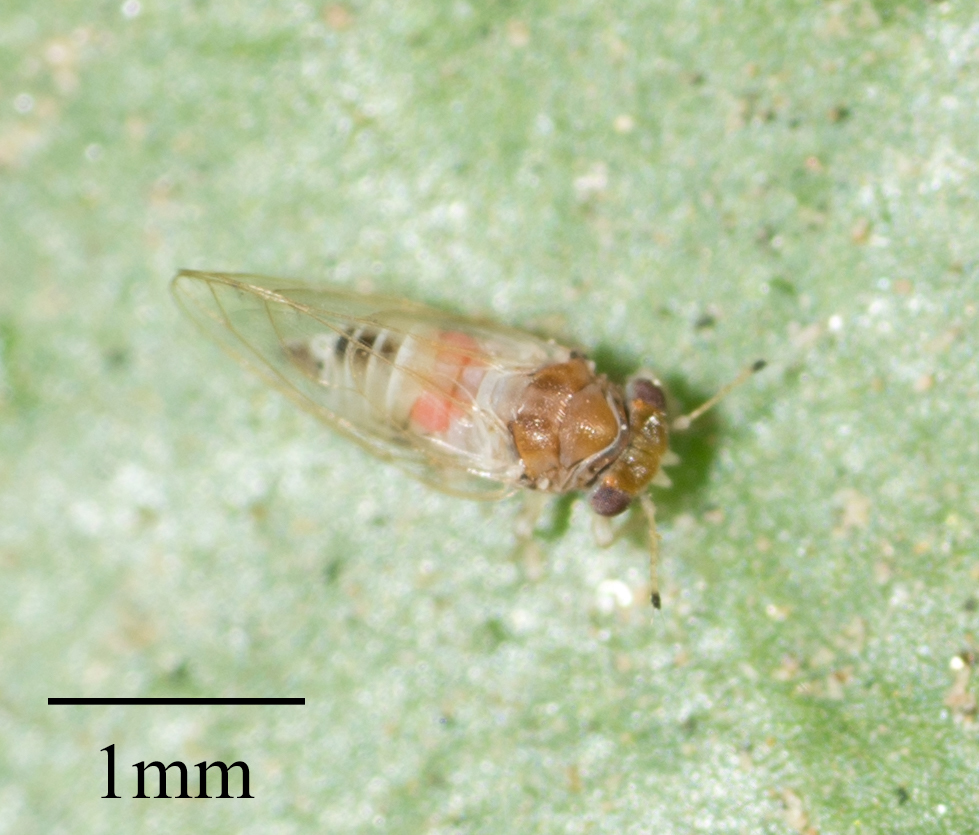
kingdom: Animalia
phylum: Arthropoda
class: Insecta
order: Hemiptera
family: Calophyidae
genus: Calophya
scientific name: Calophya californica
